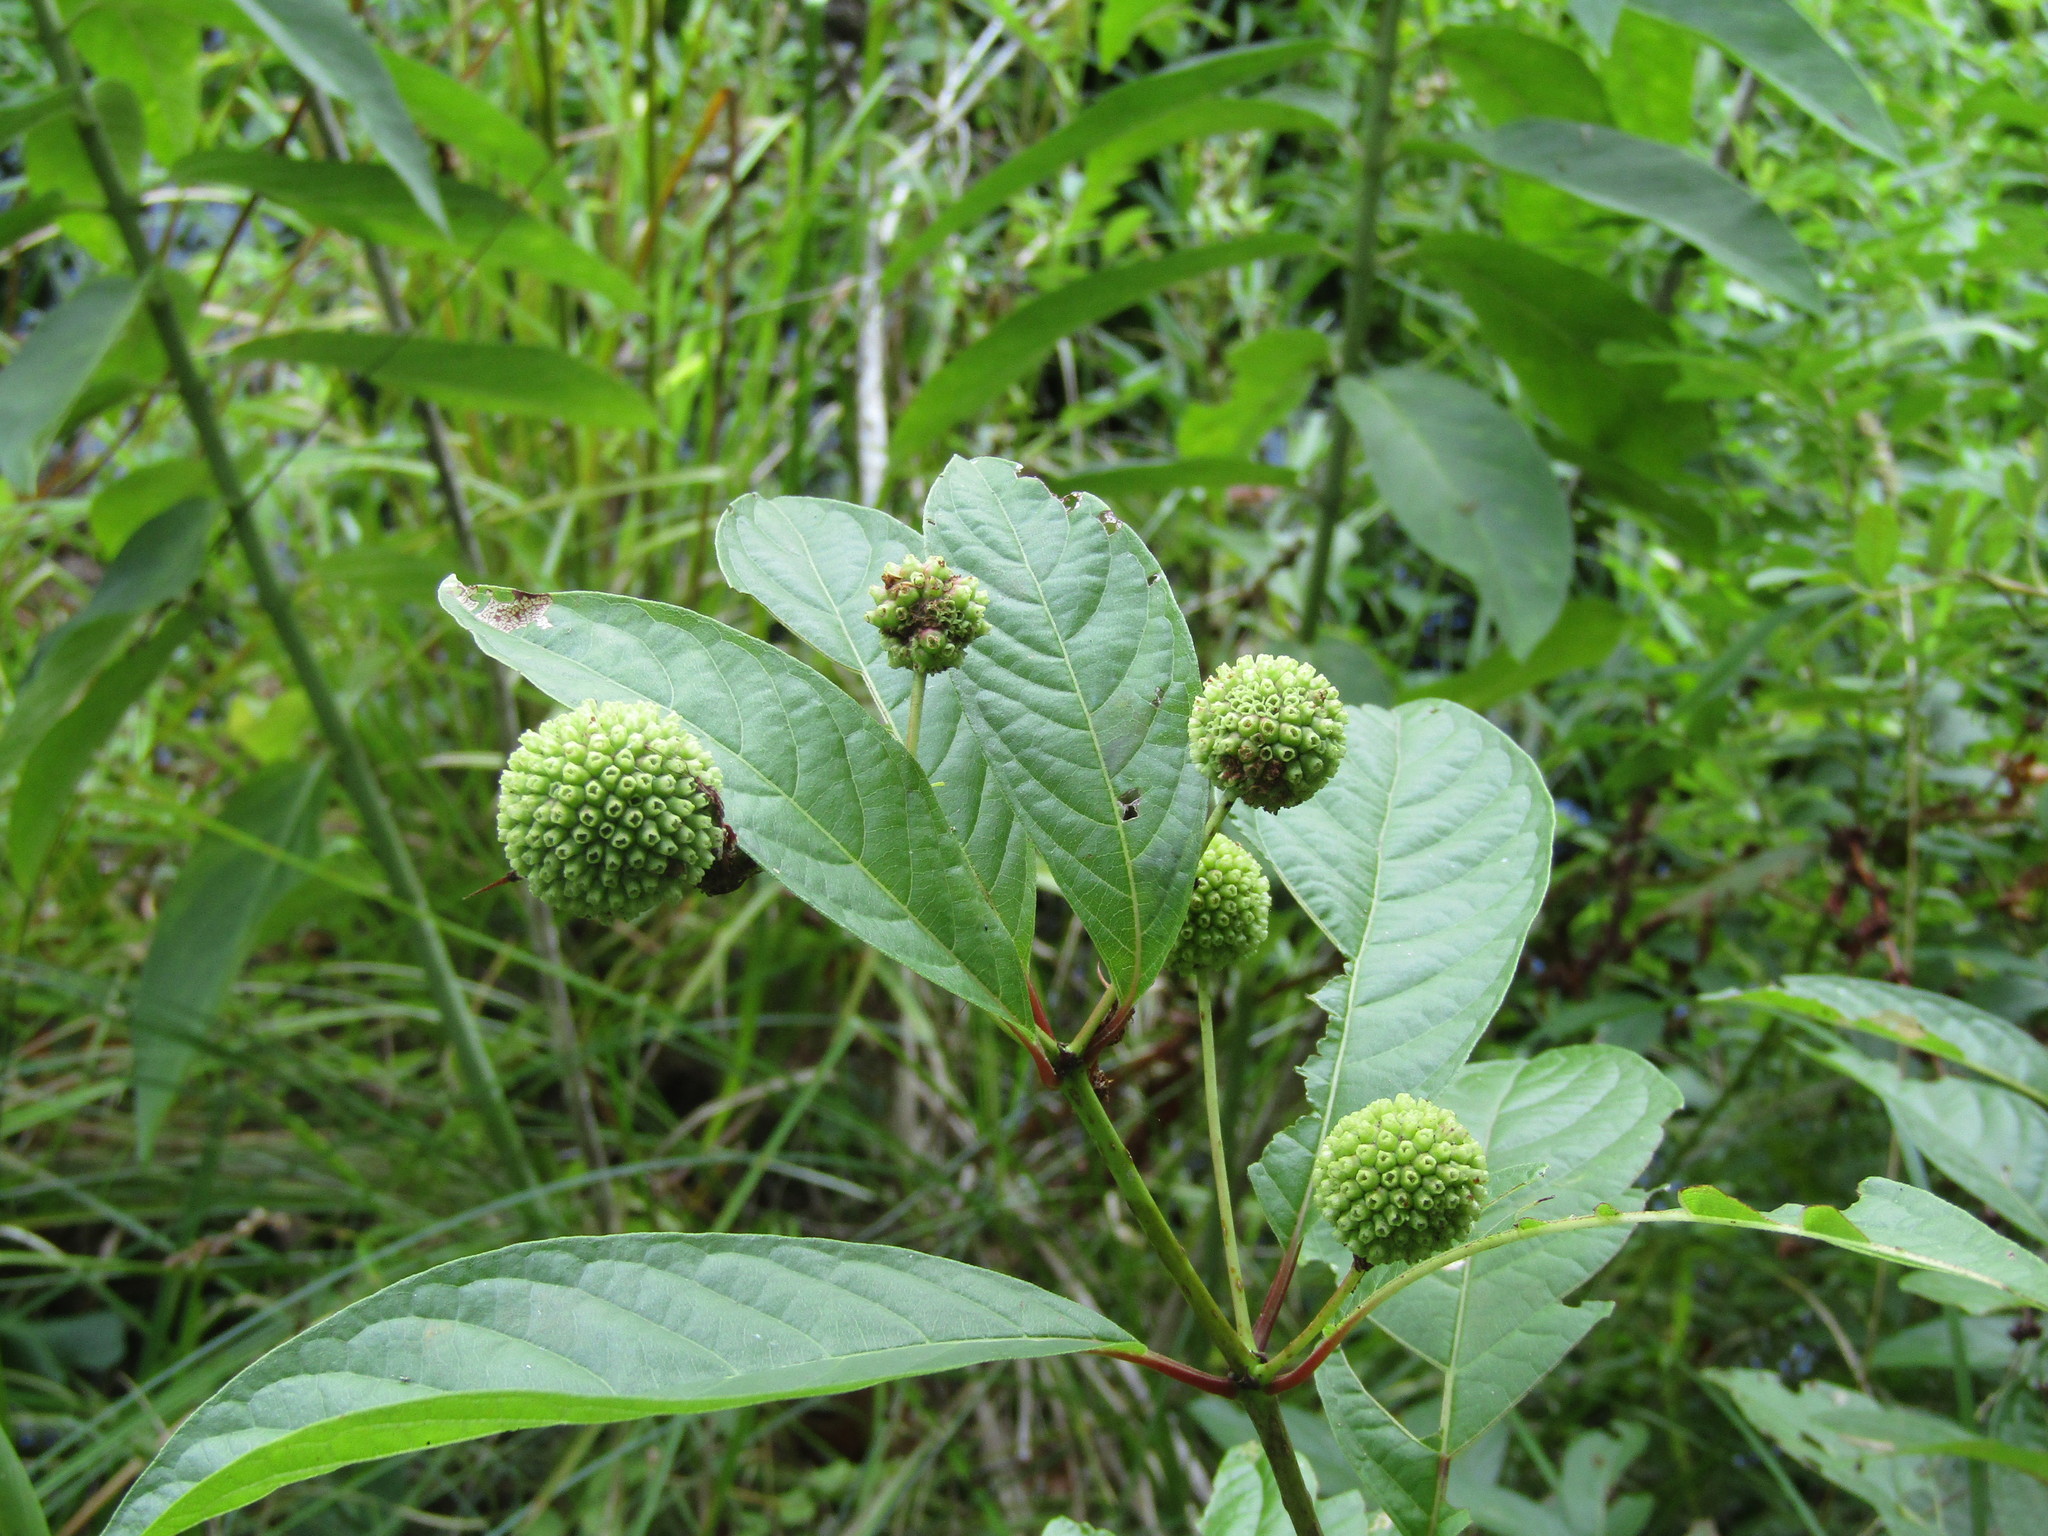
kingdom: Plantae
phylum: Tracheophyta
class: Magnoliopsida
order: Gentianales
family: Rubiaceae
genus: Cephalanthus
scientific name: Cephalanthus occidentalis
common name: Button-willow
